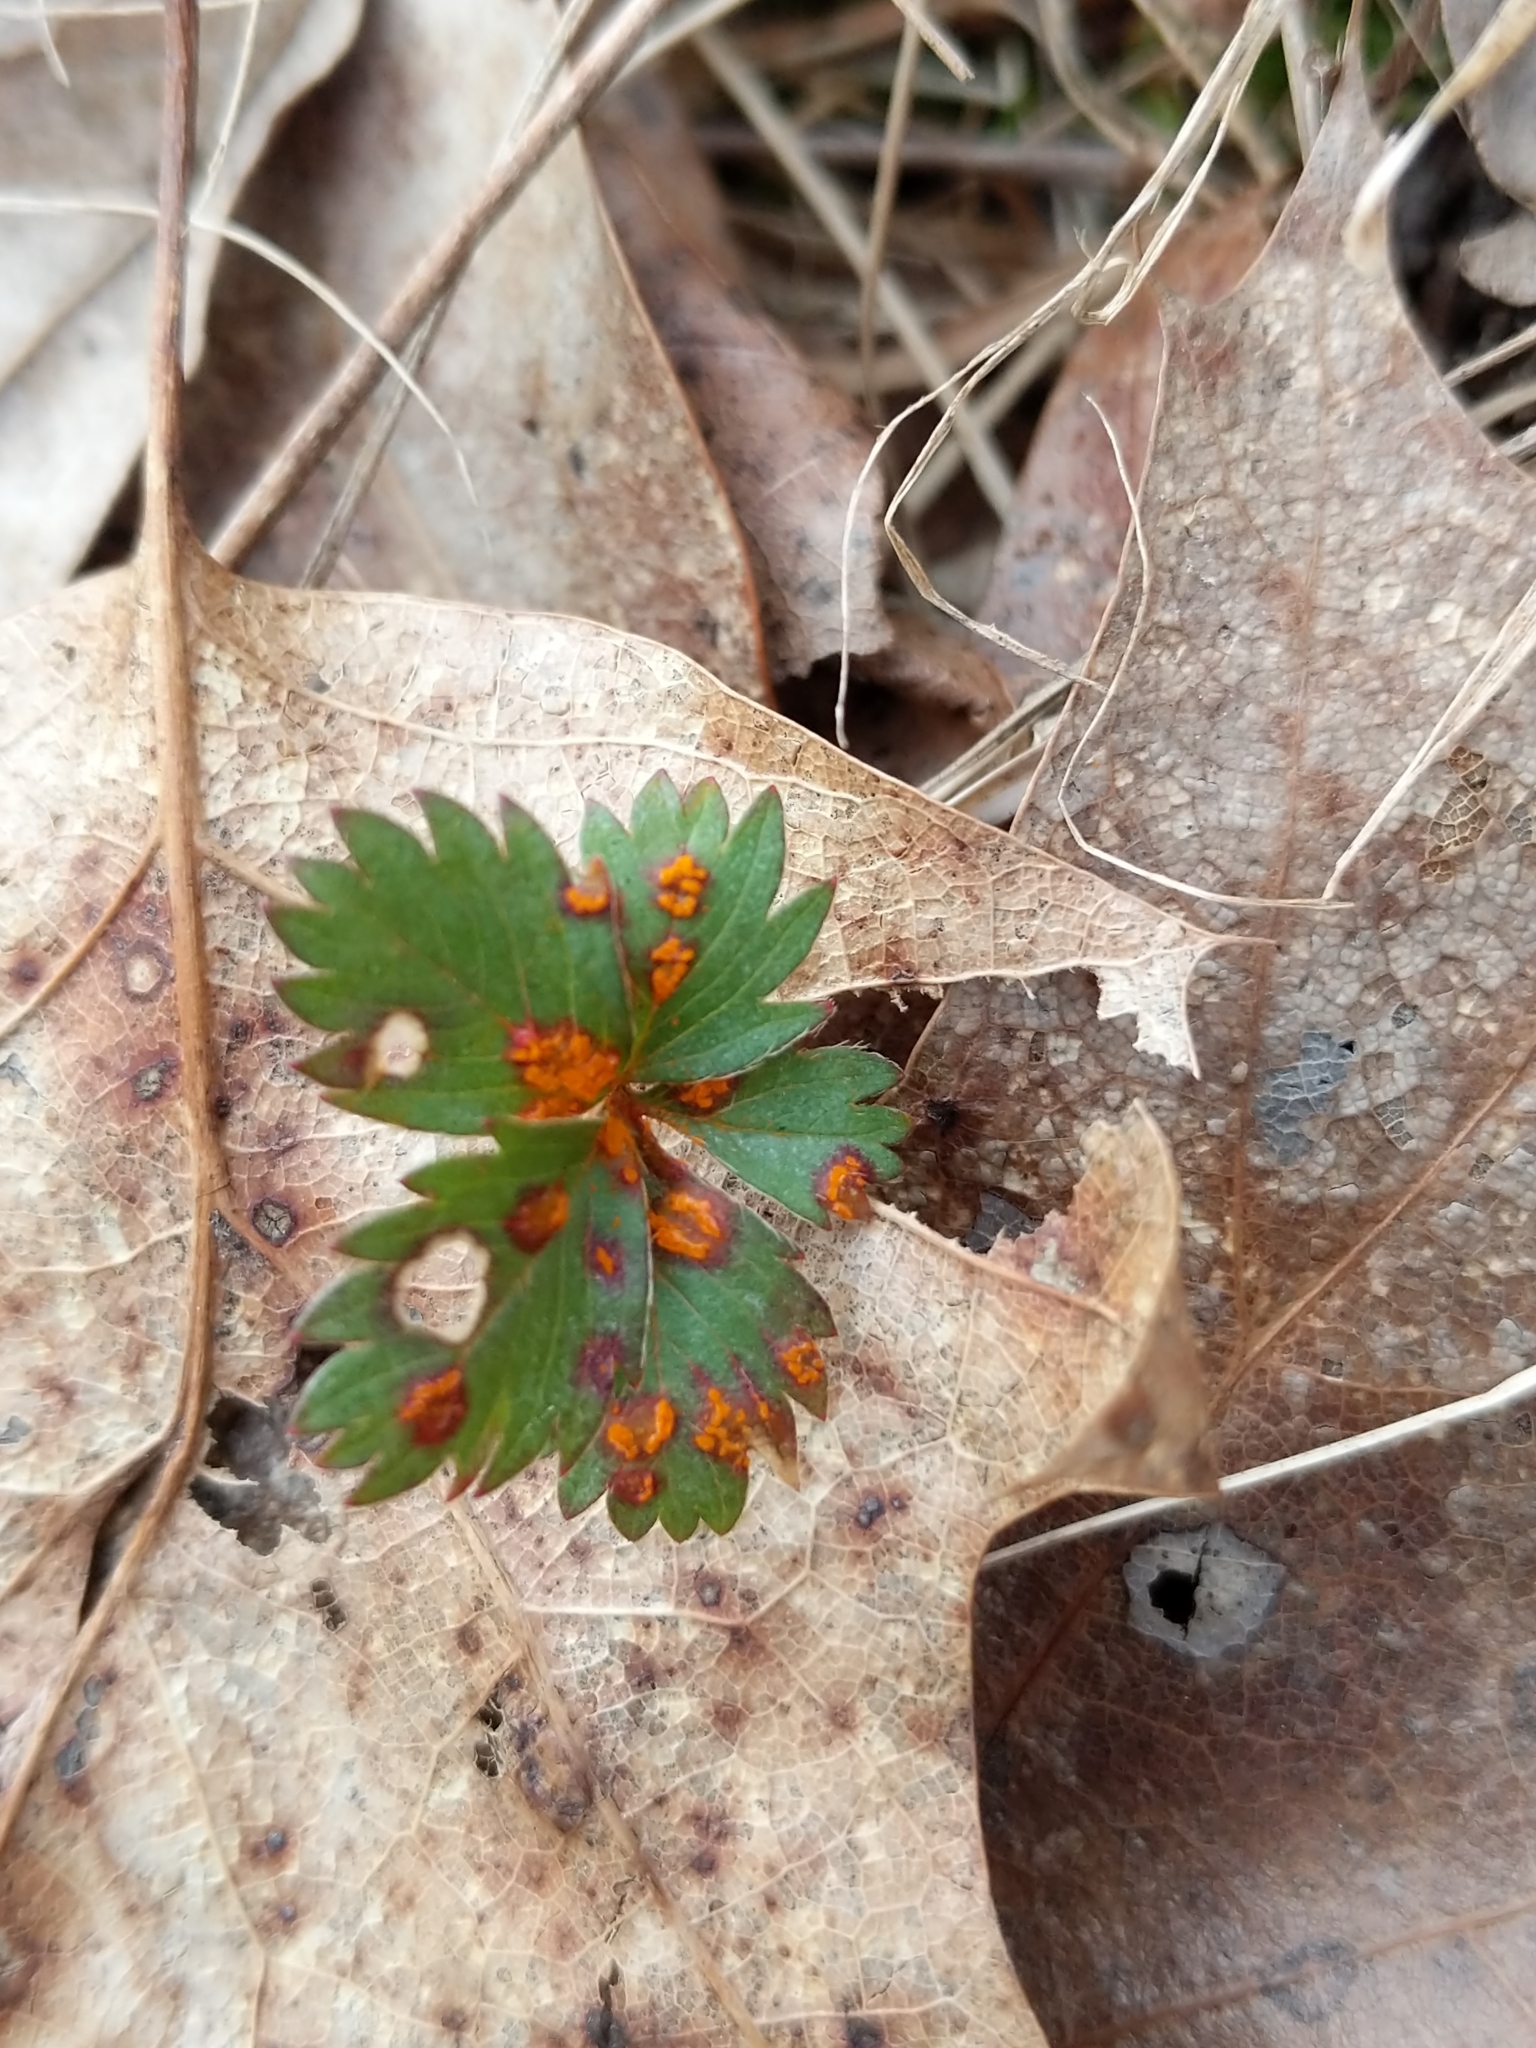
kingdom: Fungi
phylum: Basidiomycota
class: Pucciniomycetes
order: Pucciniales
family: Cronartiaceae
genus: Quasipucciniastrum
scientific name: Quasipucciniastrum potentillae
